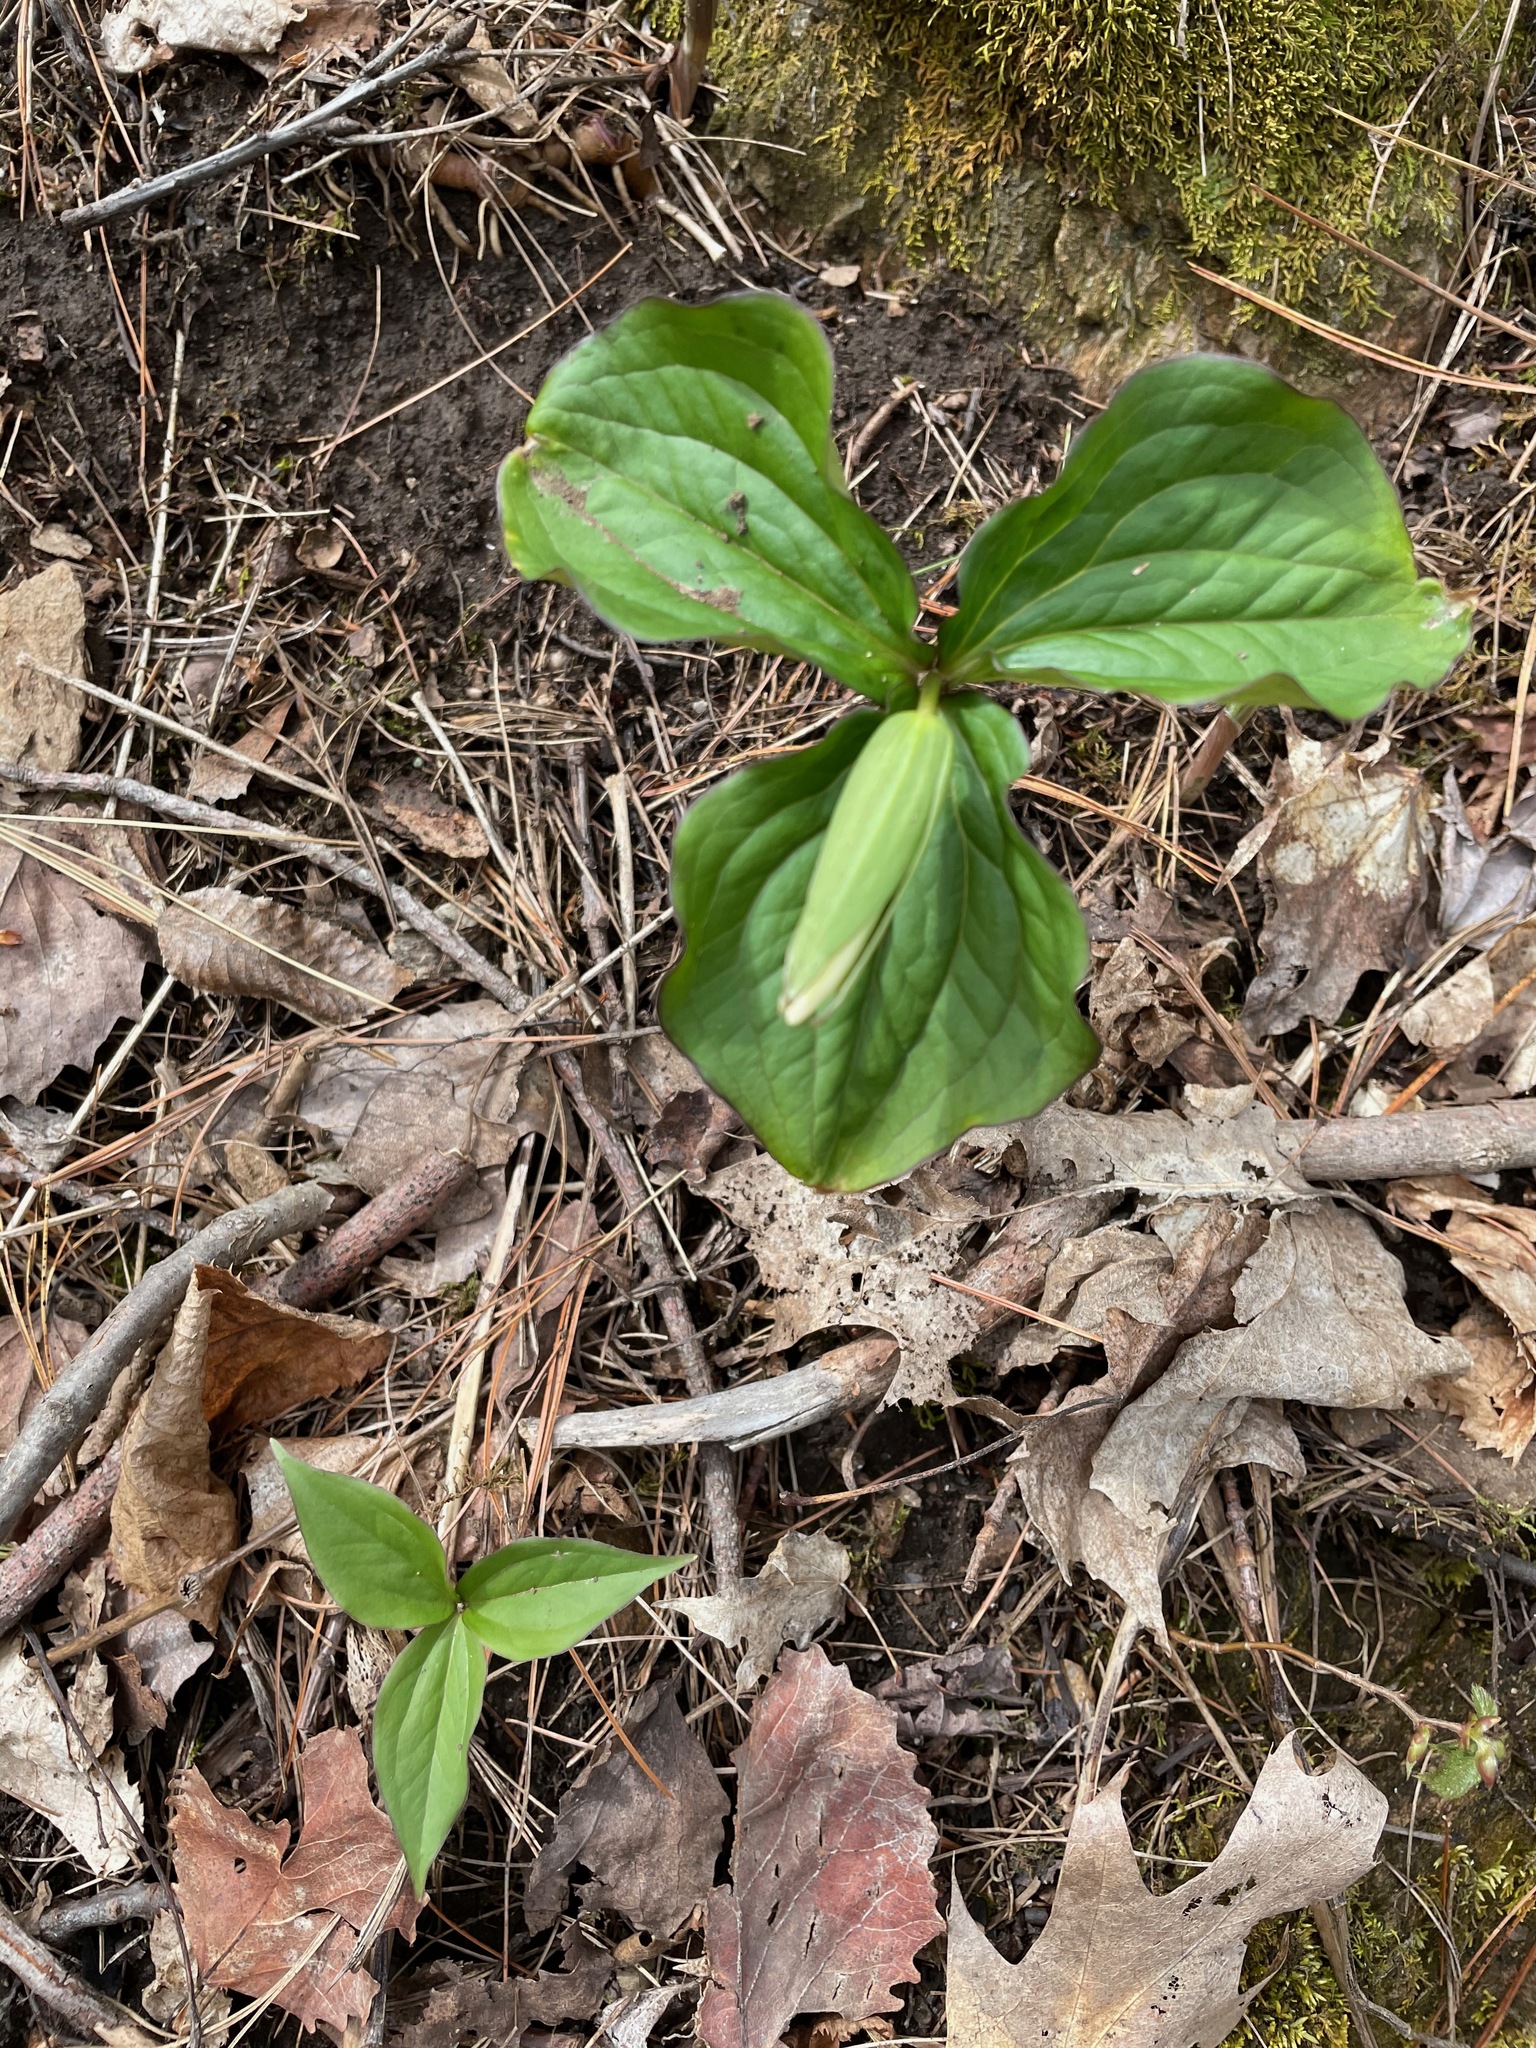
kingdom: Plantae
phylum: Tracheophyta
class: Liliopsida
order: Liliales
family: Melanthiaceae
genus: Trillium
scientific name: Trillium grandiflorum
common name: Great white trillium
